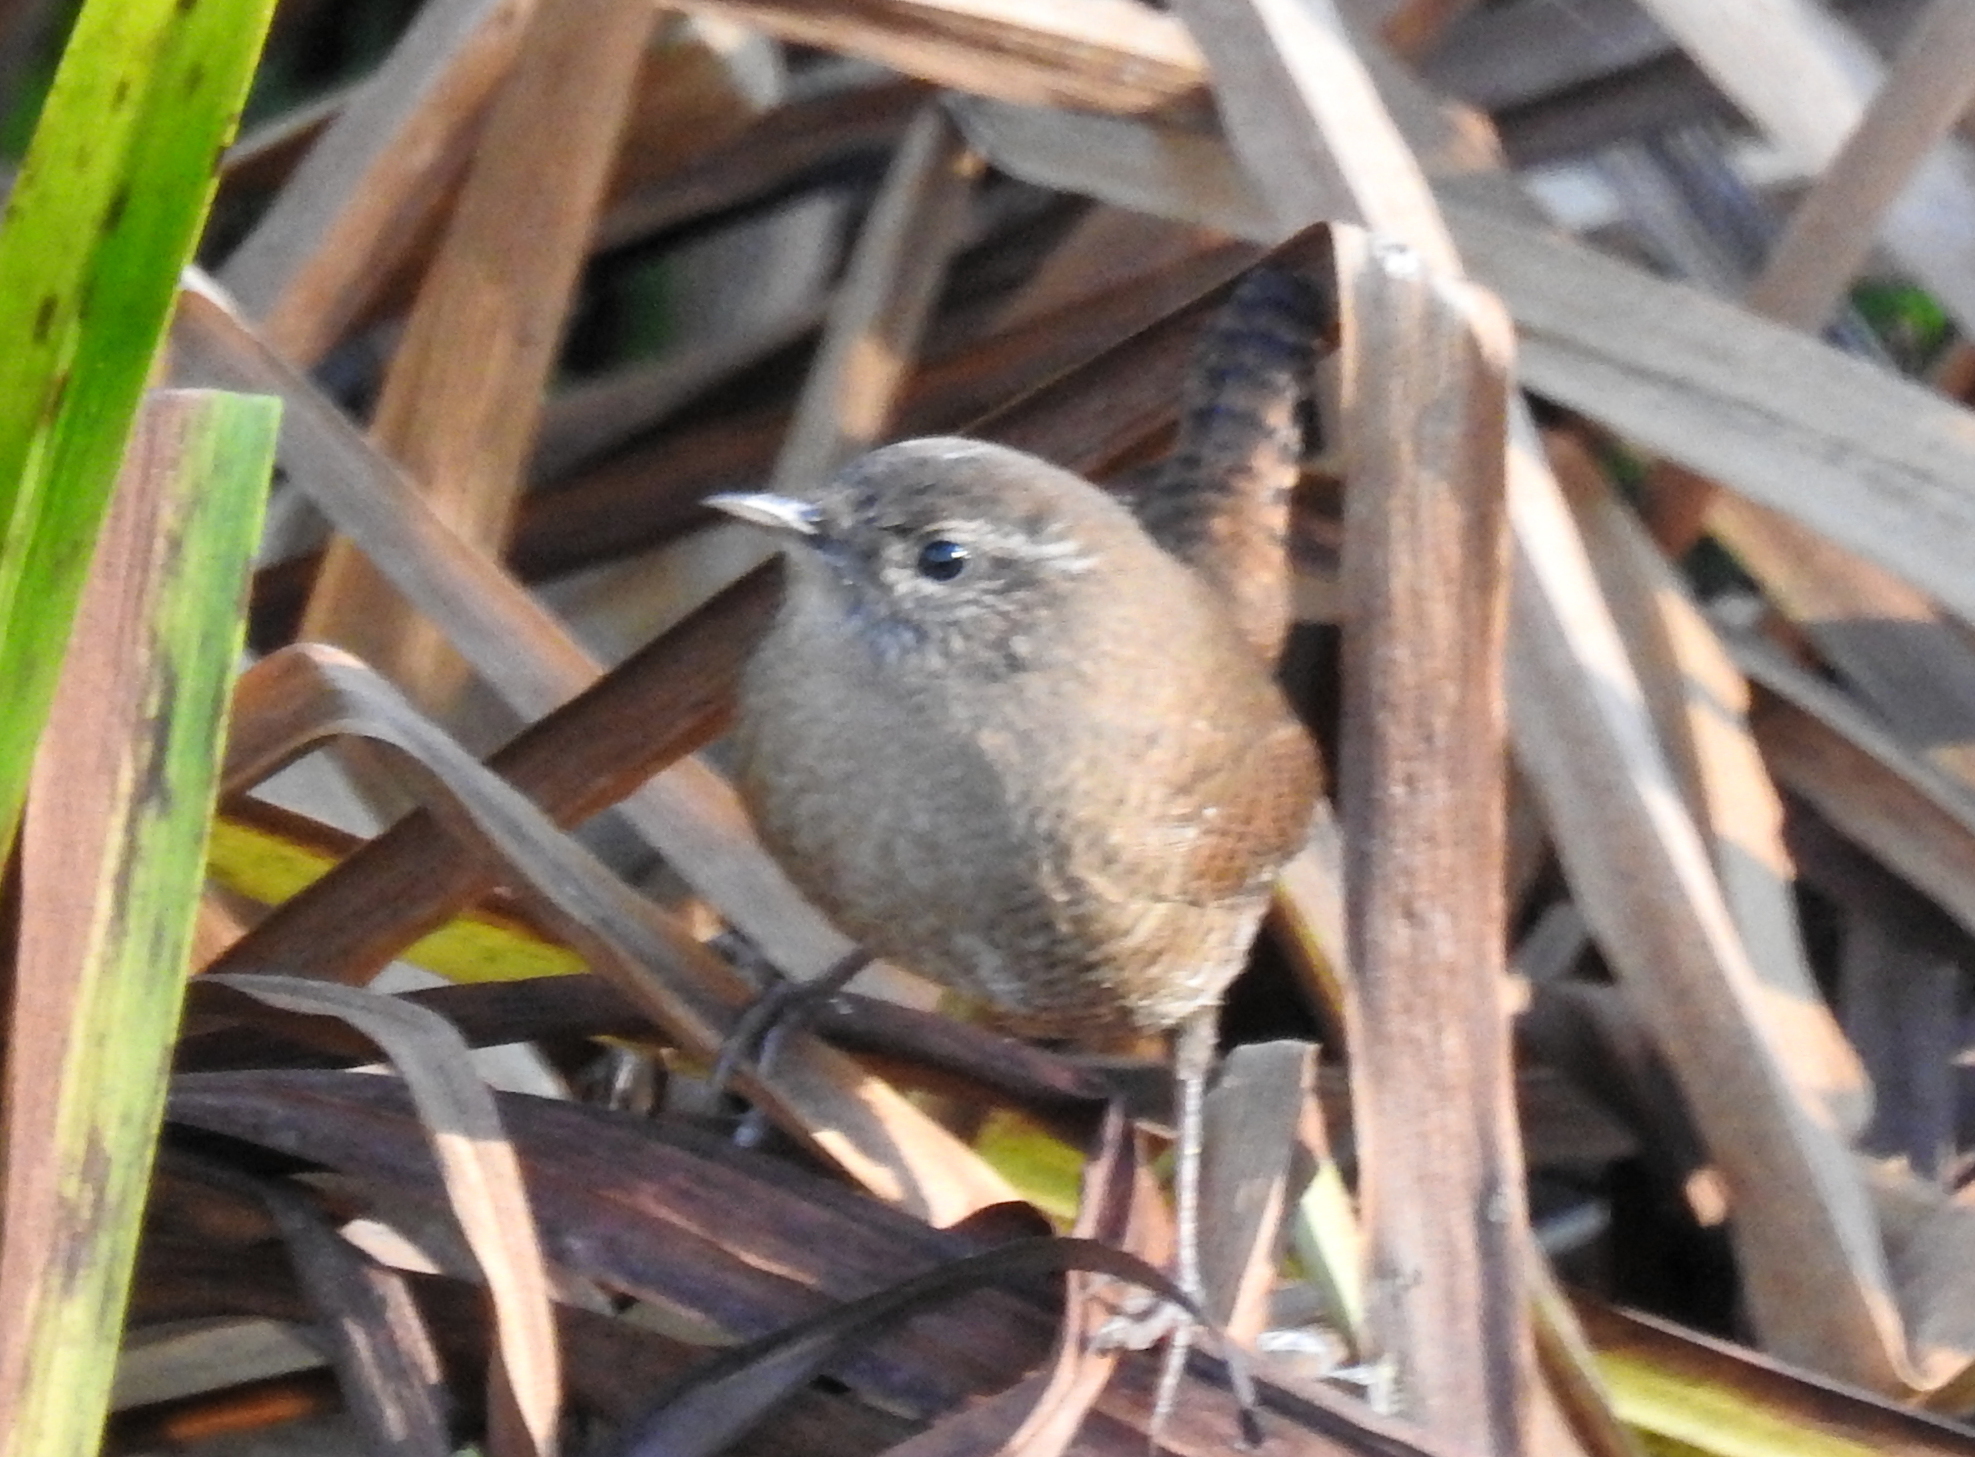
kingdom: Animalia
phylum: Chordata
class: Aves
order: Passeriformes
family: Troglodytidae
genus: Troglodytes
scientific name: Troglodytes troglodytes
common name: Eurasian wren
